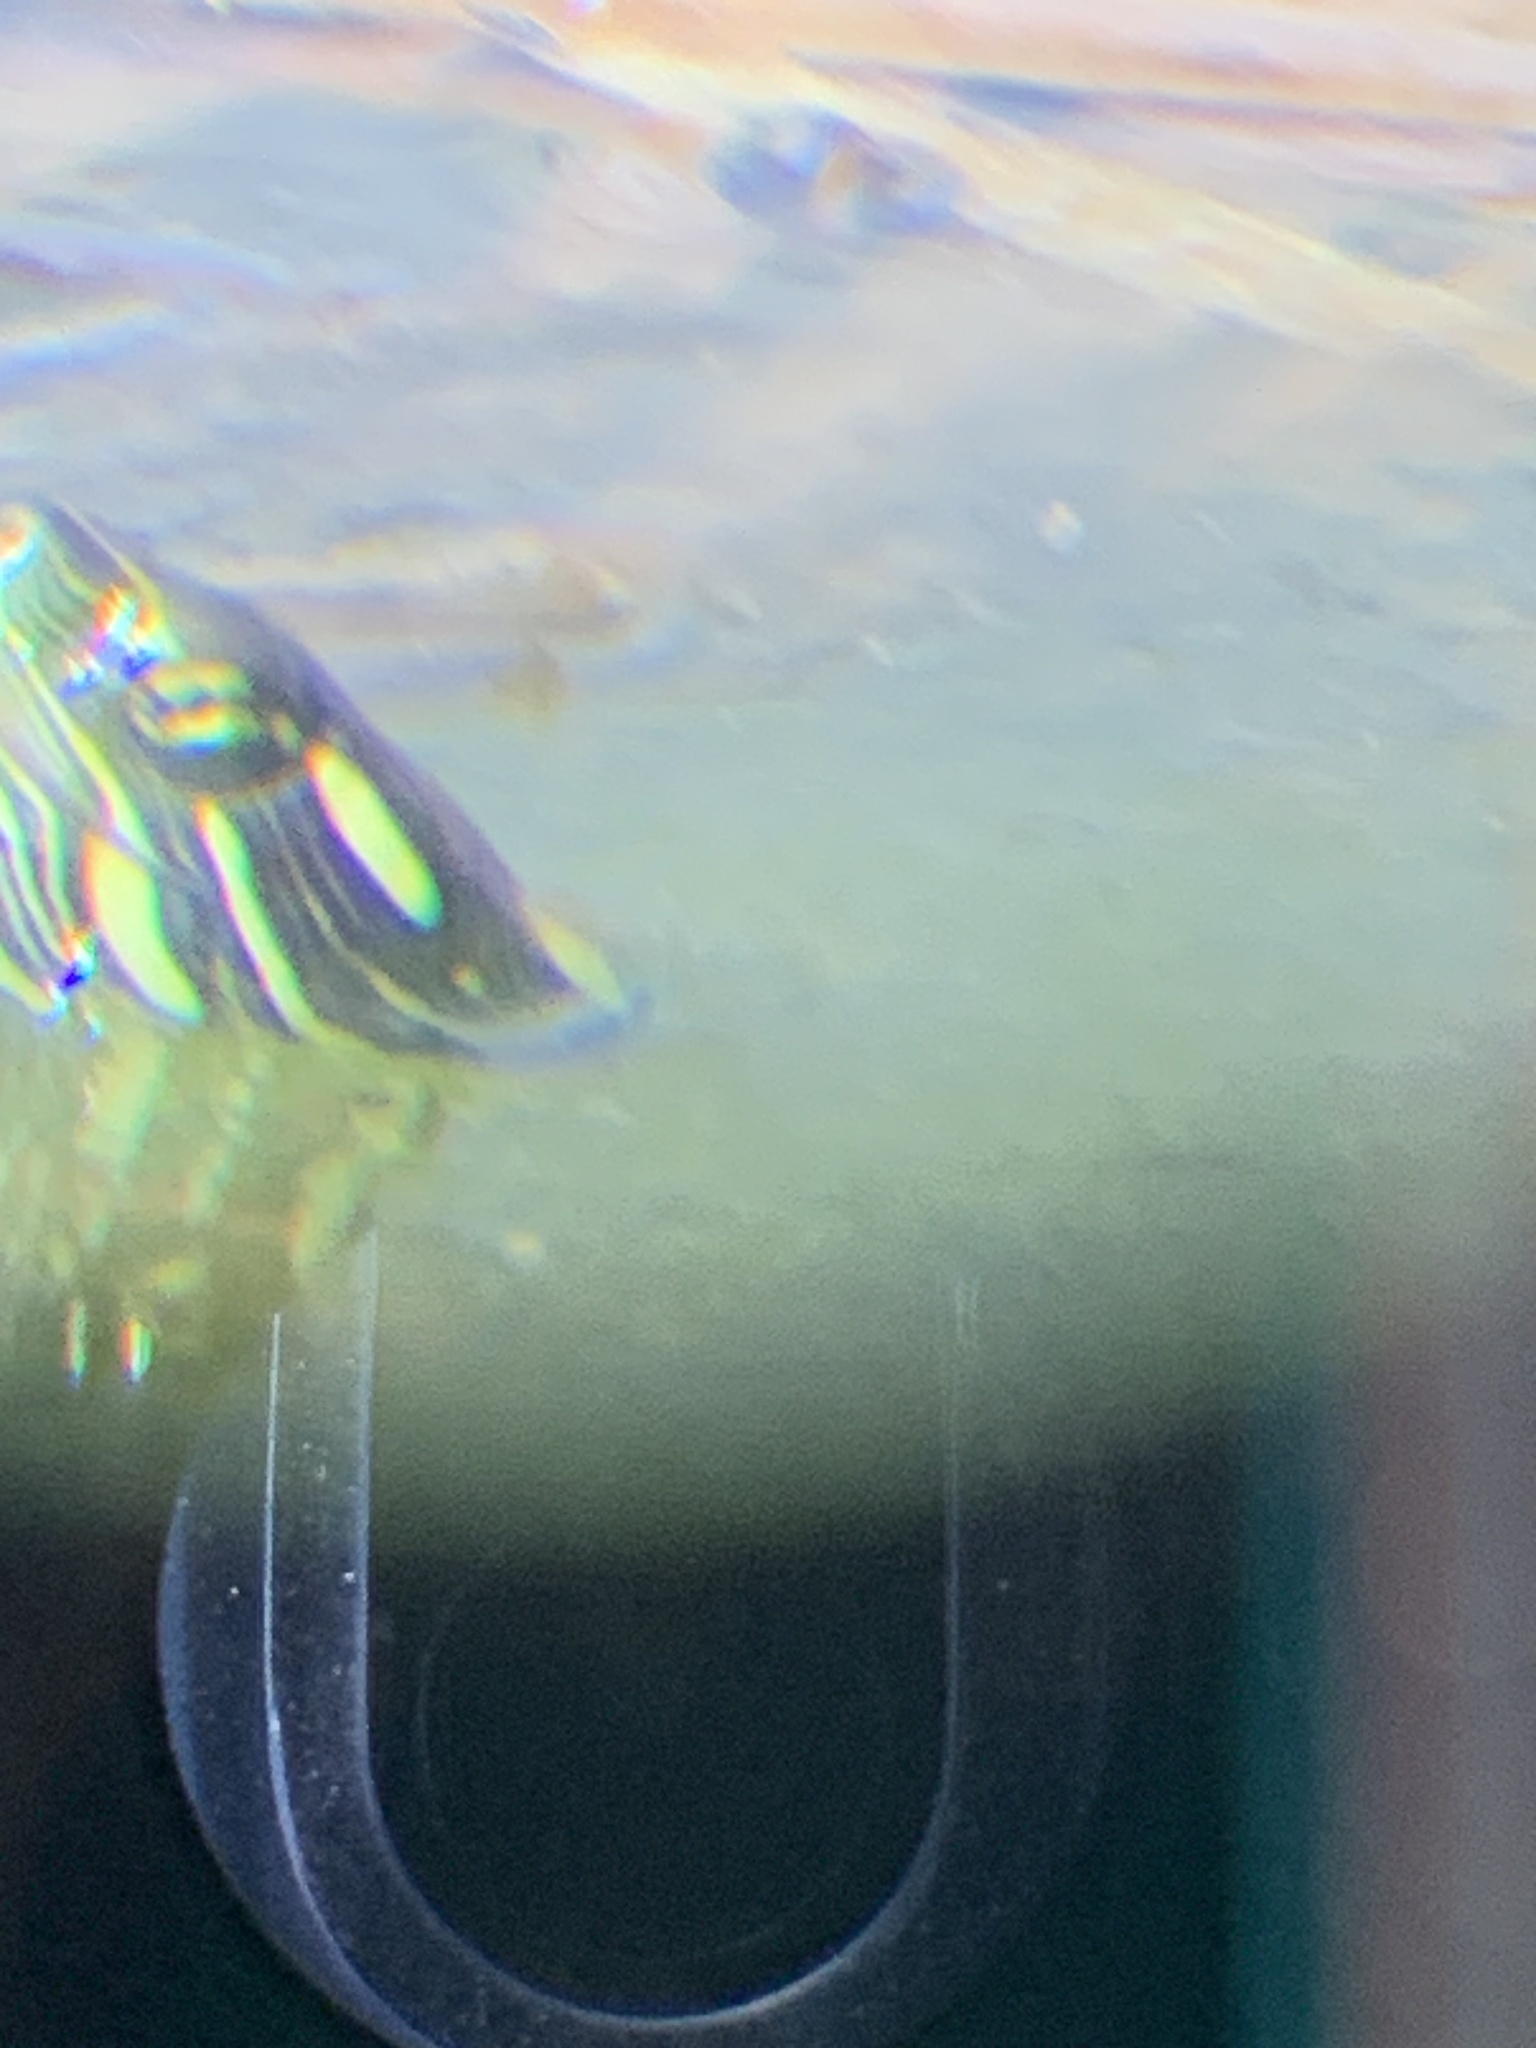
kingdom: Animalia
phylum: Chordata
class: Testudines
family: Emydidae
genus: Chrysemys
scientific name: Chrysemys picta
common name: Painted turtle
